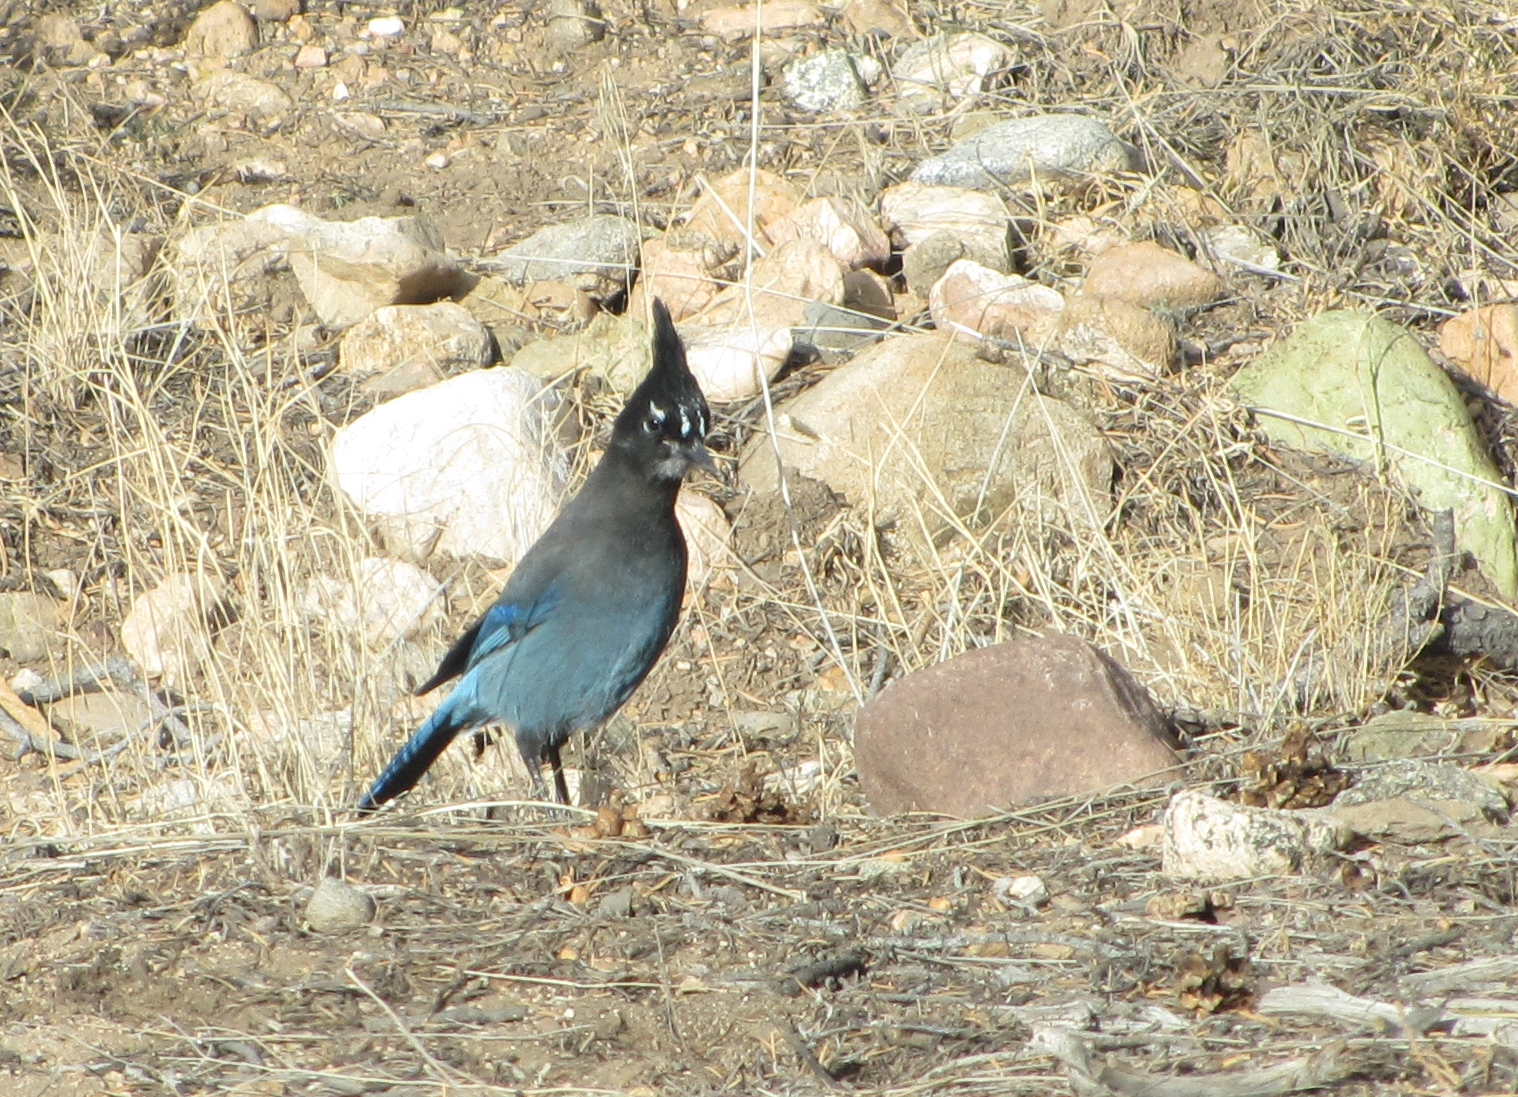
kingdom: Animalia
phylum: Chordata
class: Aves
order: Passeriformes
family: Corvidae
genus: Cyanocitta
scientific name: Cyanocitta stelleri
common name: Steller's jay
